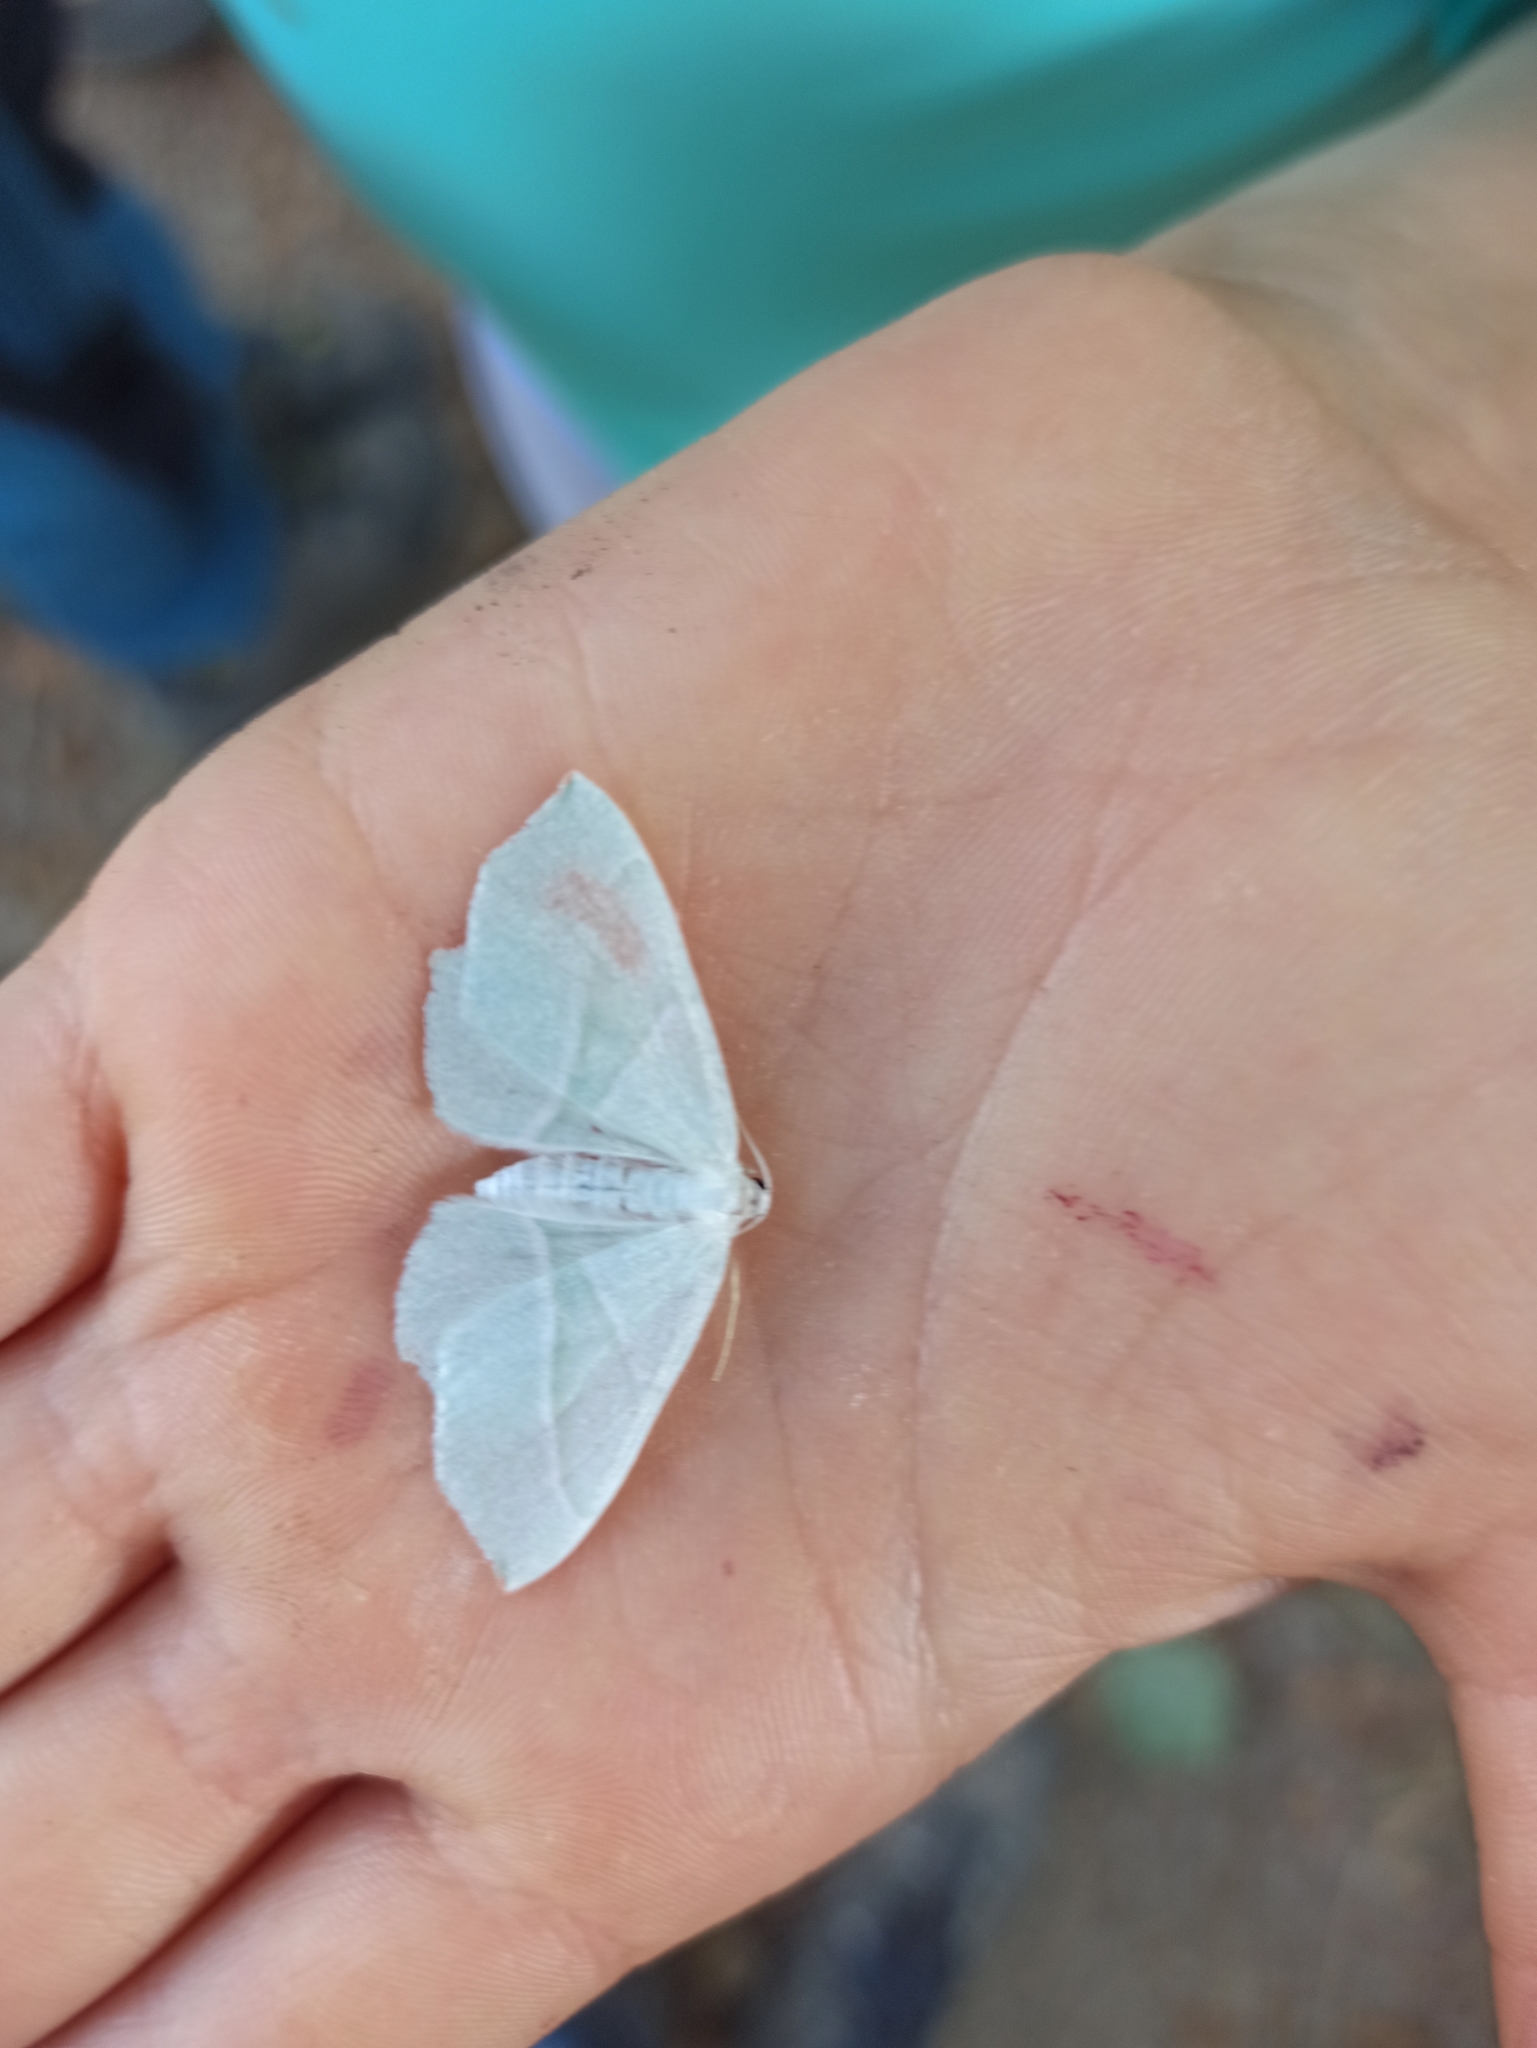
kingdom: Animalia
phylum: Arthropoda
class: Insecta
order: Lepidoptera
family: Geometridae
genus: Campaea
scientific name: Campaea margaritaria
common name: Light emerald
